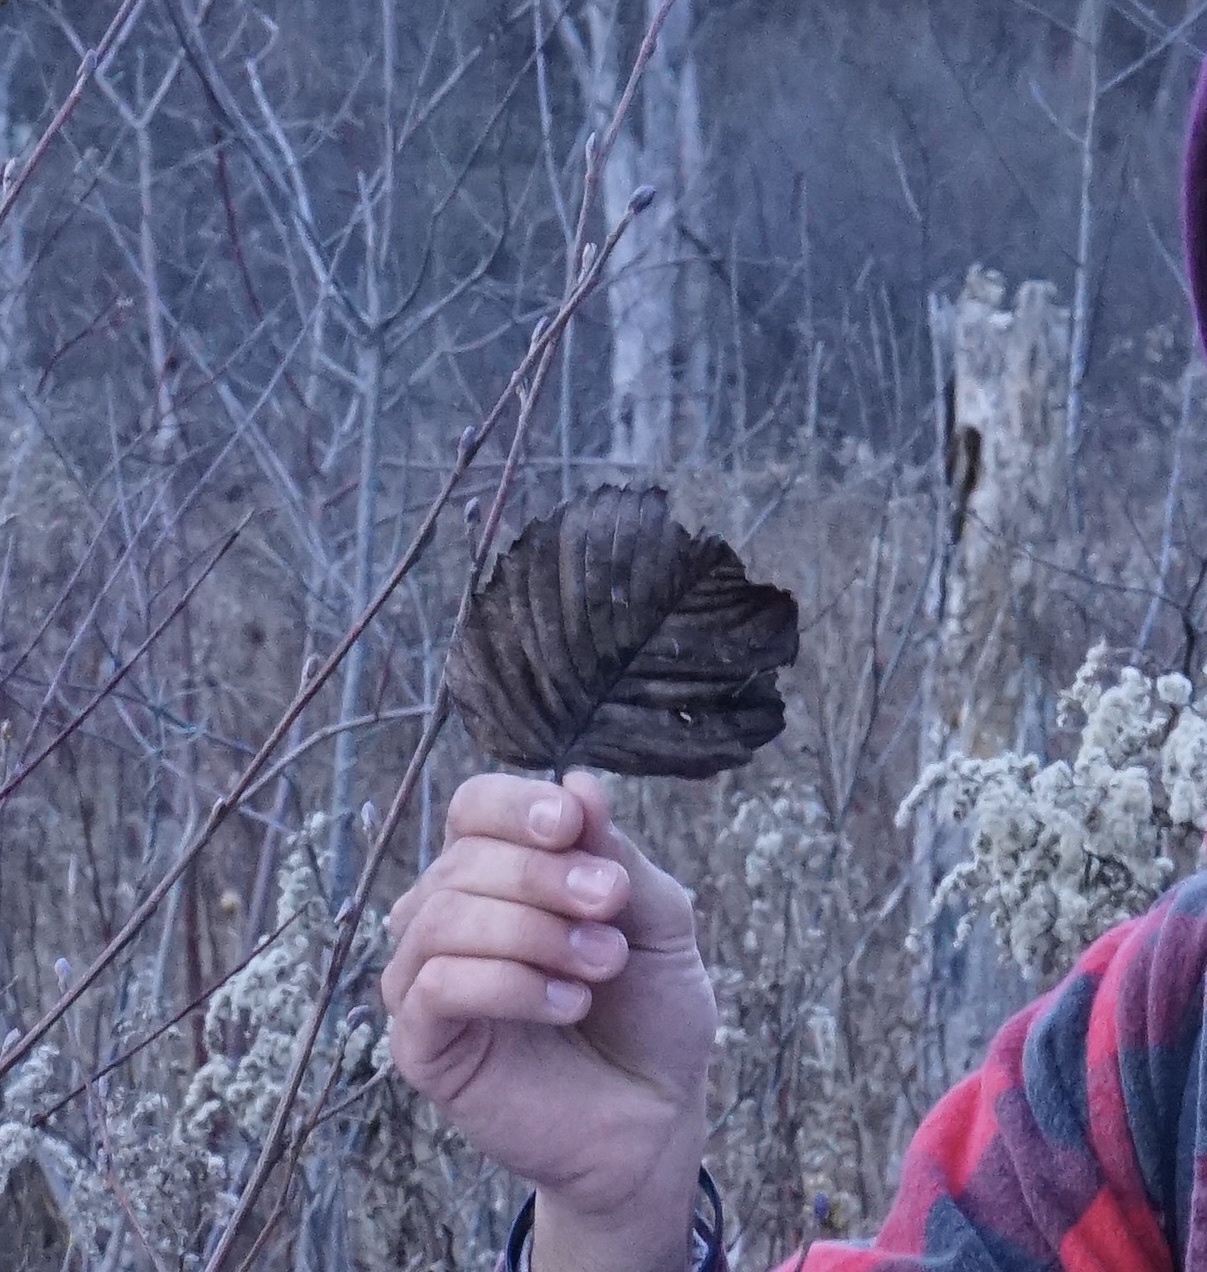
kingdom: Plantae
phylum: Tracheophyta
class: Magnoliopsida
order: Fagales
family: Betulaceae
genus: Alnus
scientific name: Alnus glutinosa
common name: Black alder
